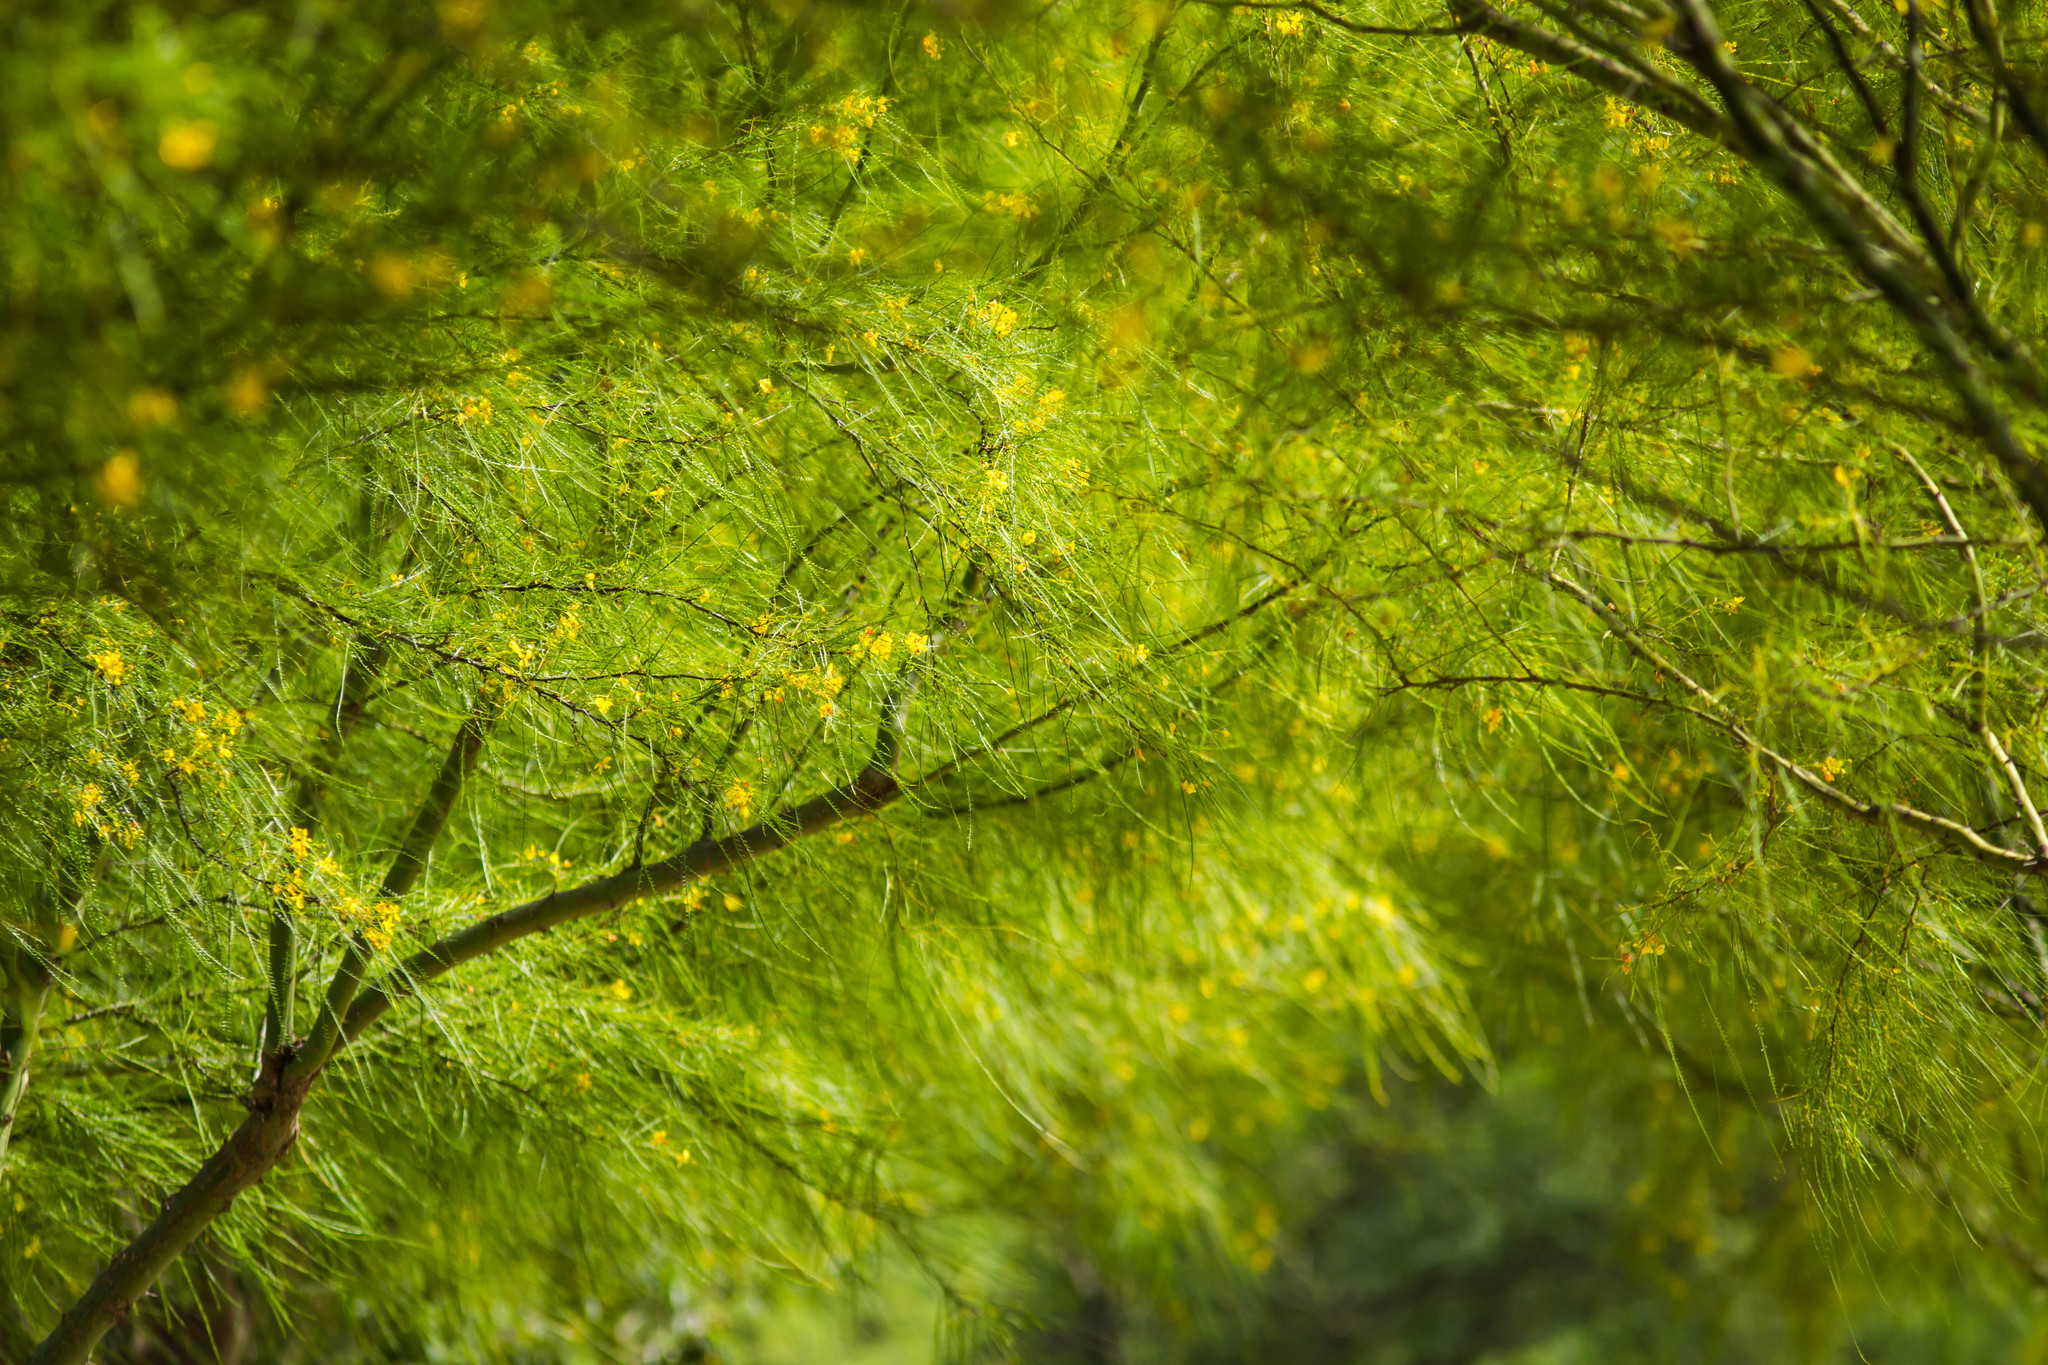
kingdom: Plantae
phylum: Tracheophyta
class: Magnoliopsida
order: Fabales
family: Fabaceae
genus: Parkinsonia
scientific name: Parkinsonia aculeata
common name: Jerusalem thorn
